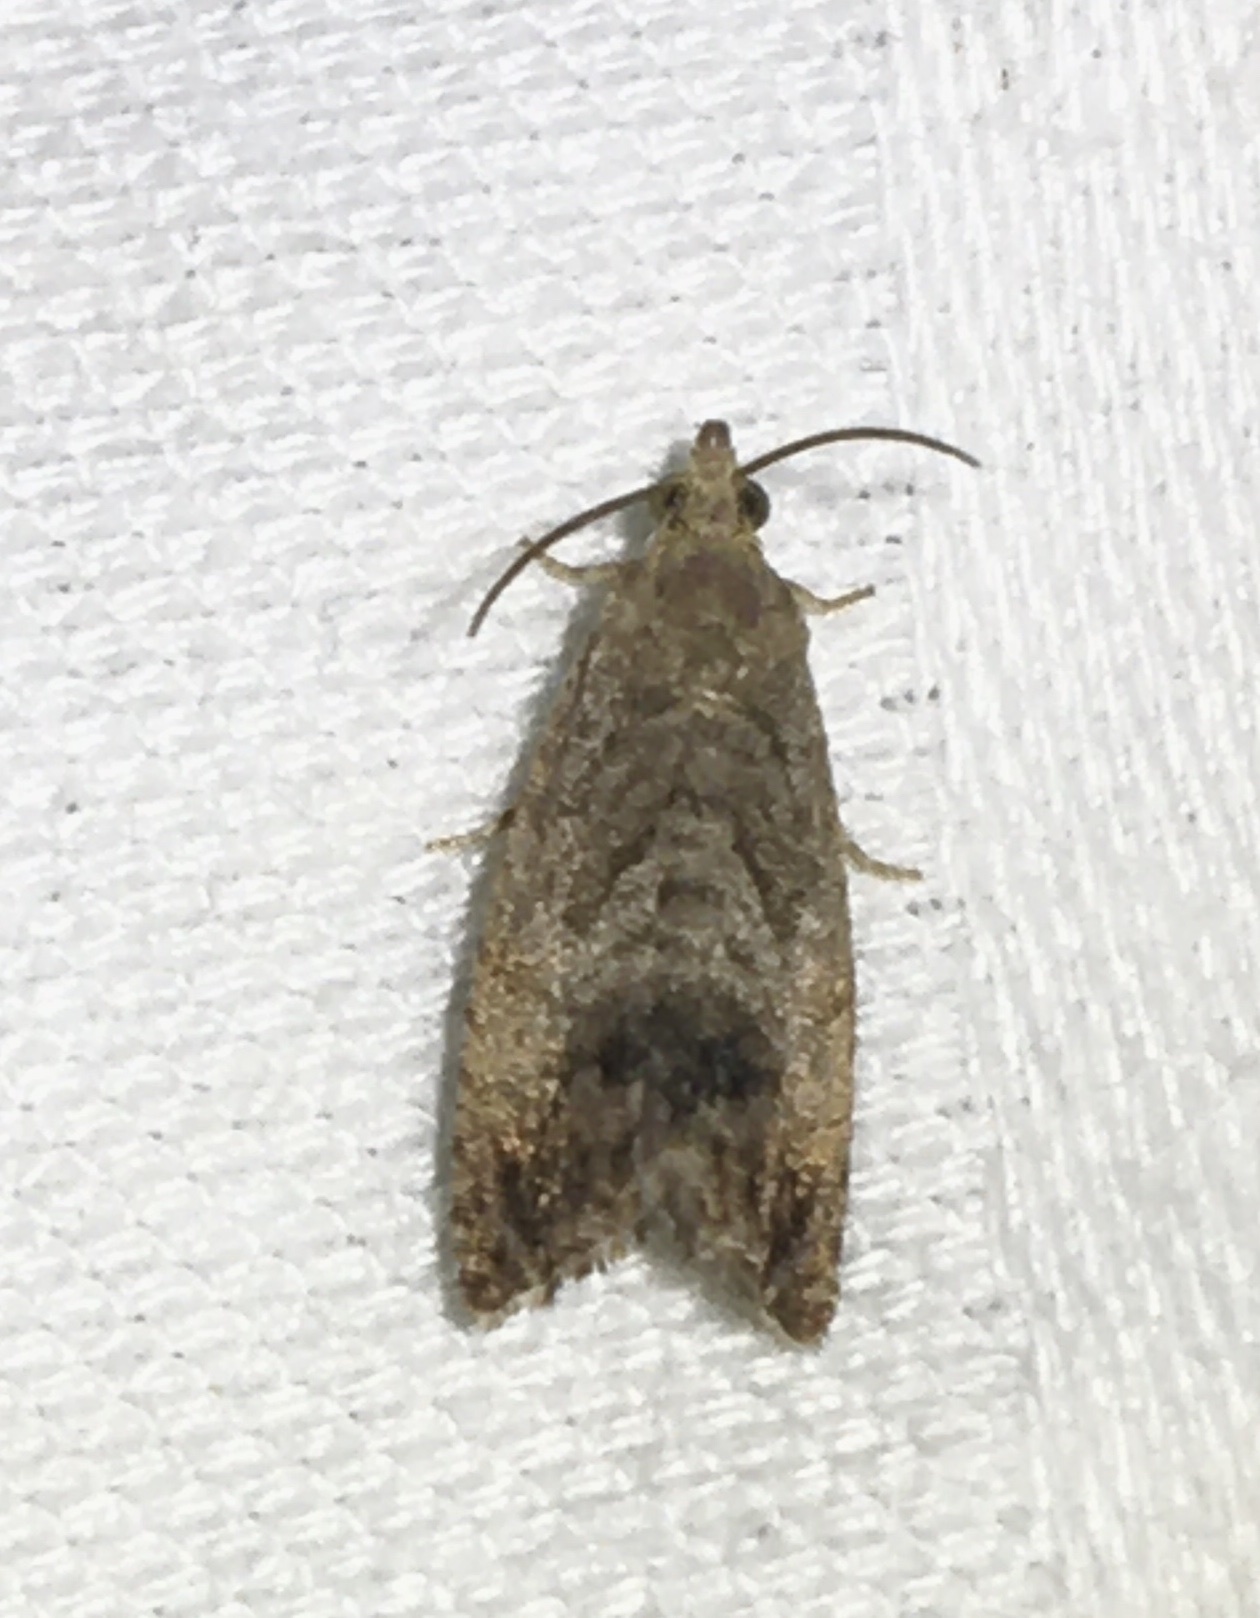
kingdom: Animalia
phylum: Arthropoda
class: Insecta
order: Lepidoptera
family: Tortricidae
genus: Cydia
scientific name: Cydia splendana
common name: De: kastanienwickler, eichenwickler es: oruga de la castaña fr: carpocapse des châtaignes it: cidia o tortrice tardiva delle castagne pt: bichado das castanhas gb: acorn moth, chestnut fruit tortrix
